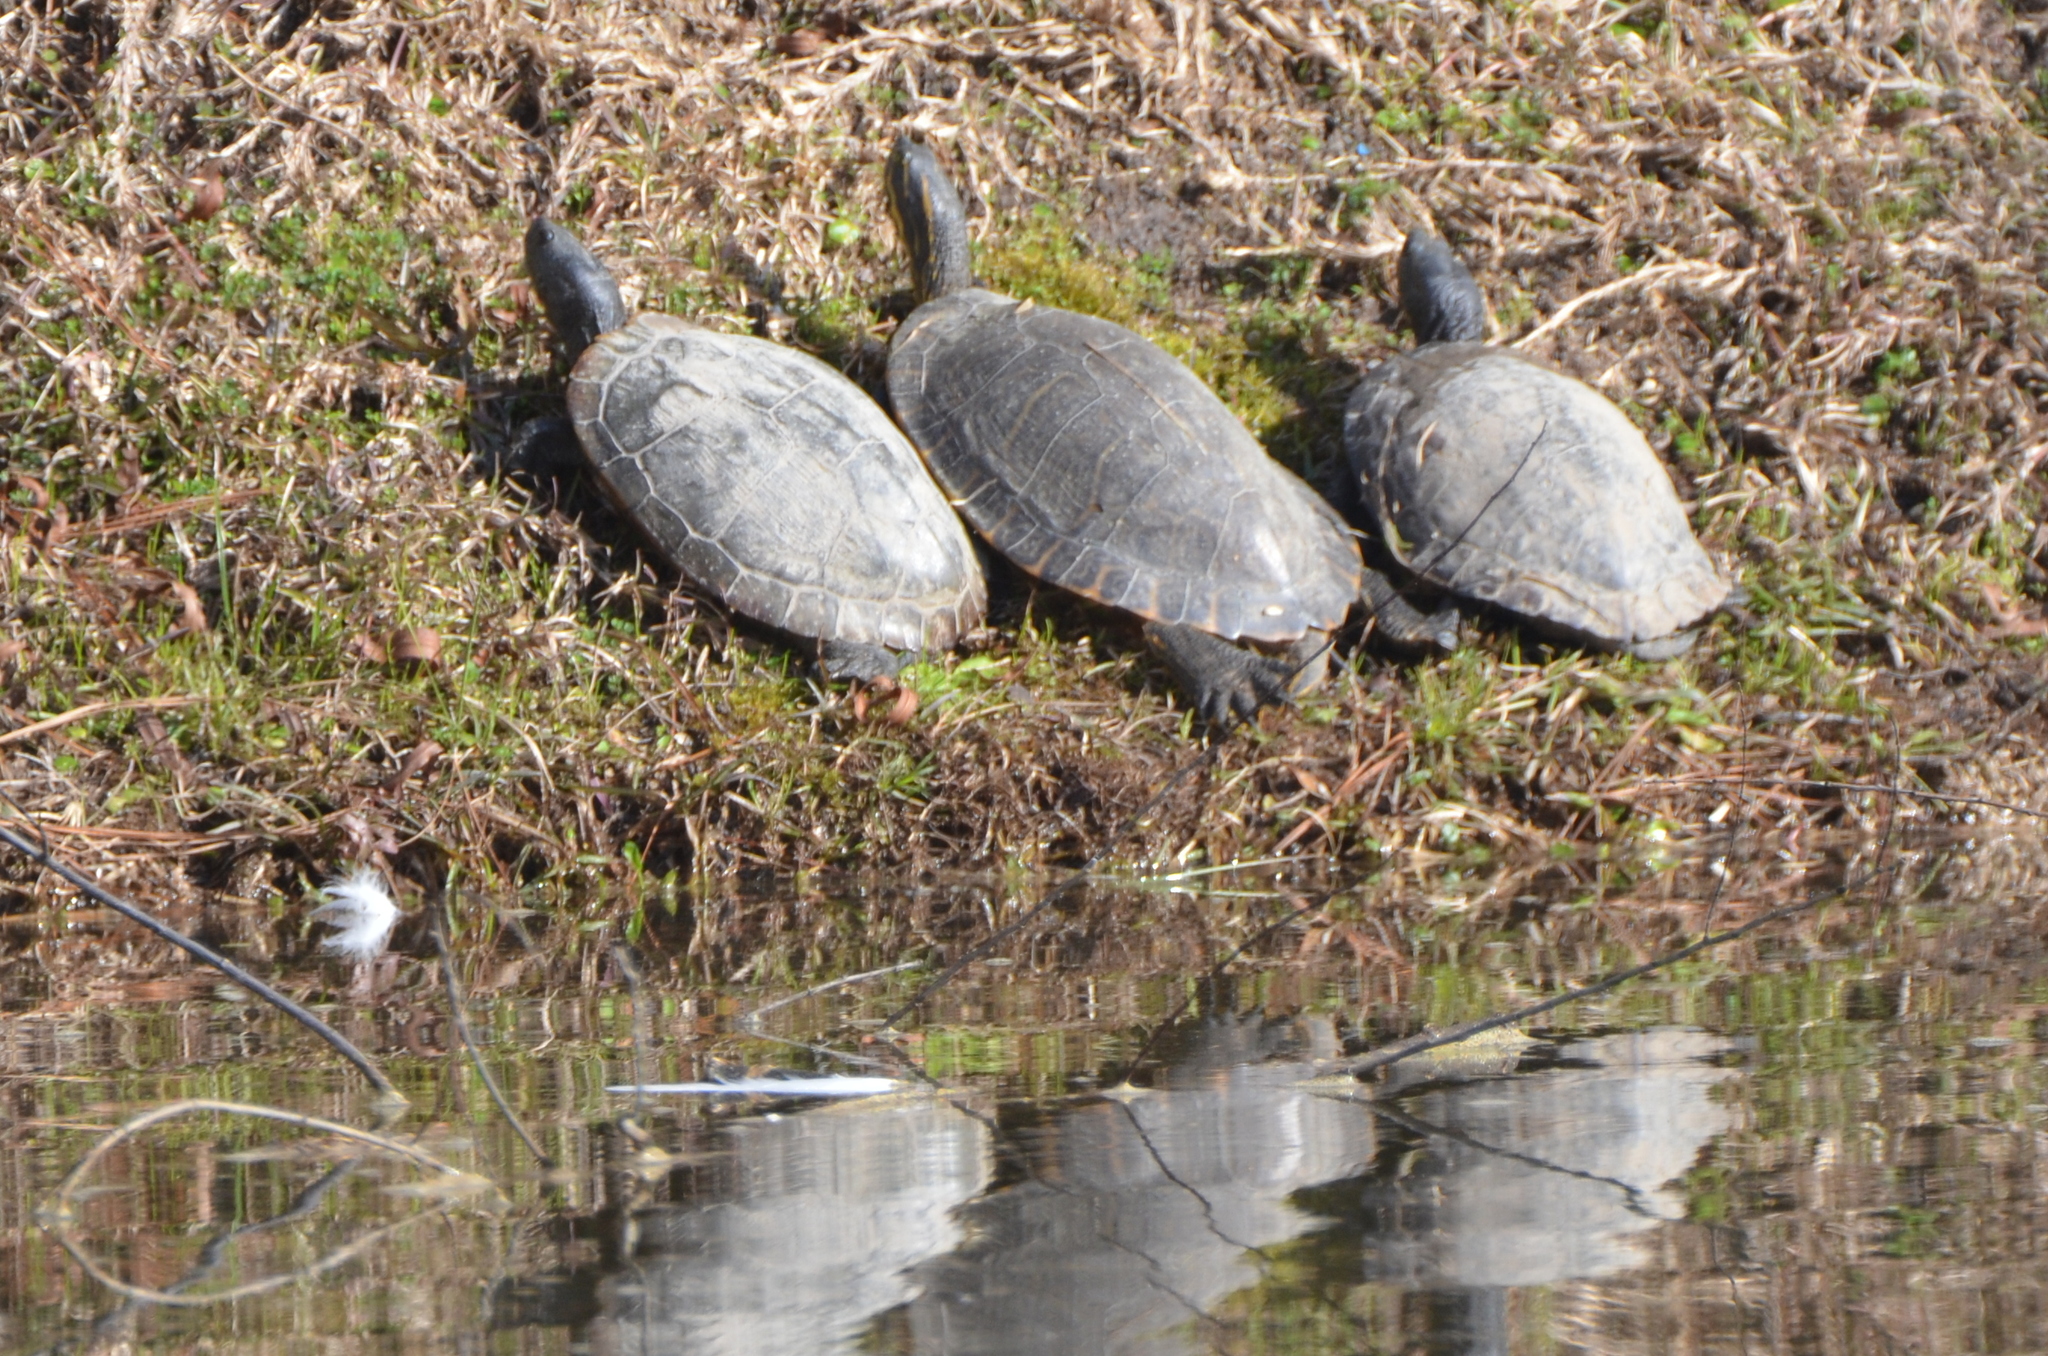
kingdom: Animalia
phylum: Chordata
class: Testudines
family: Emydidae
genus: Trachemys
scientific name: Trachemys scripta
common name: Slider
